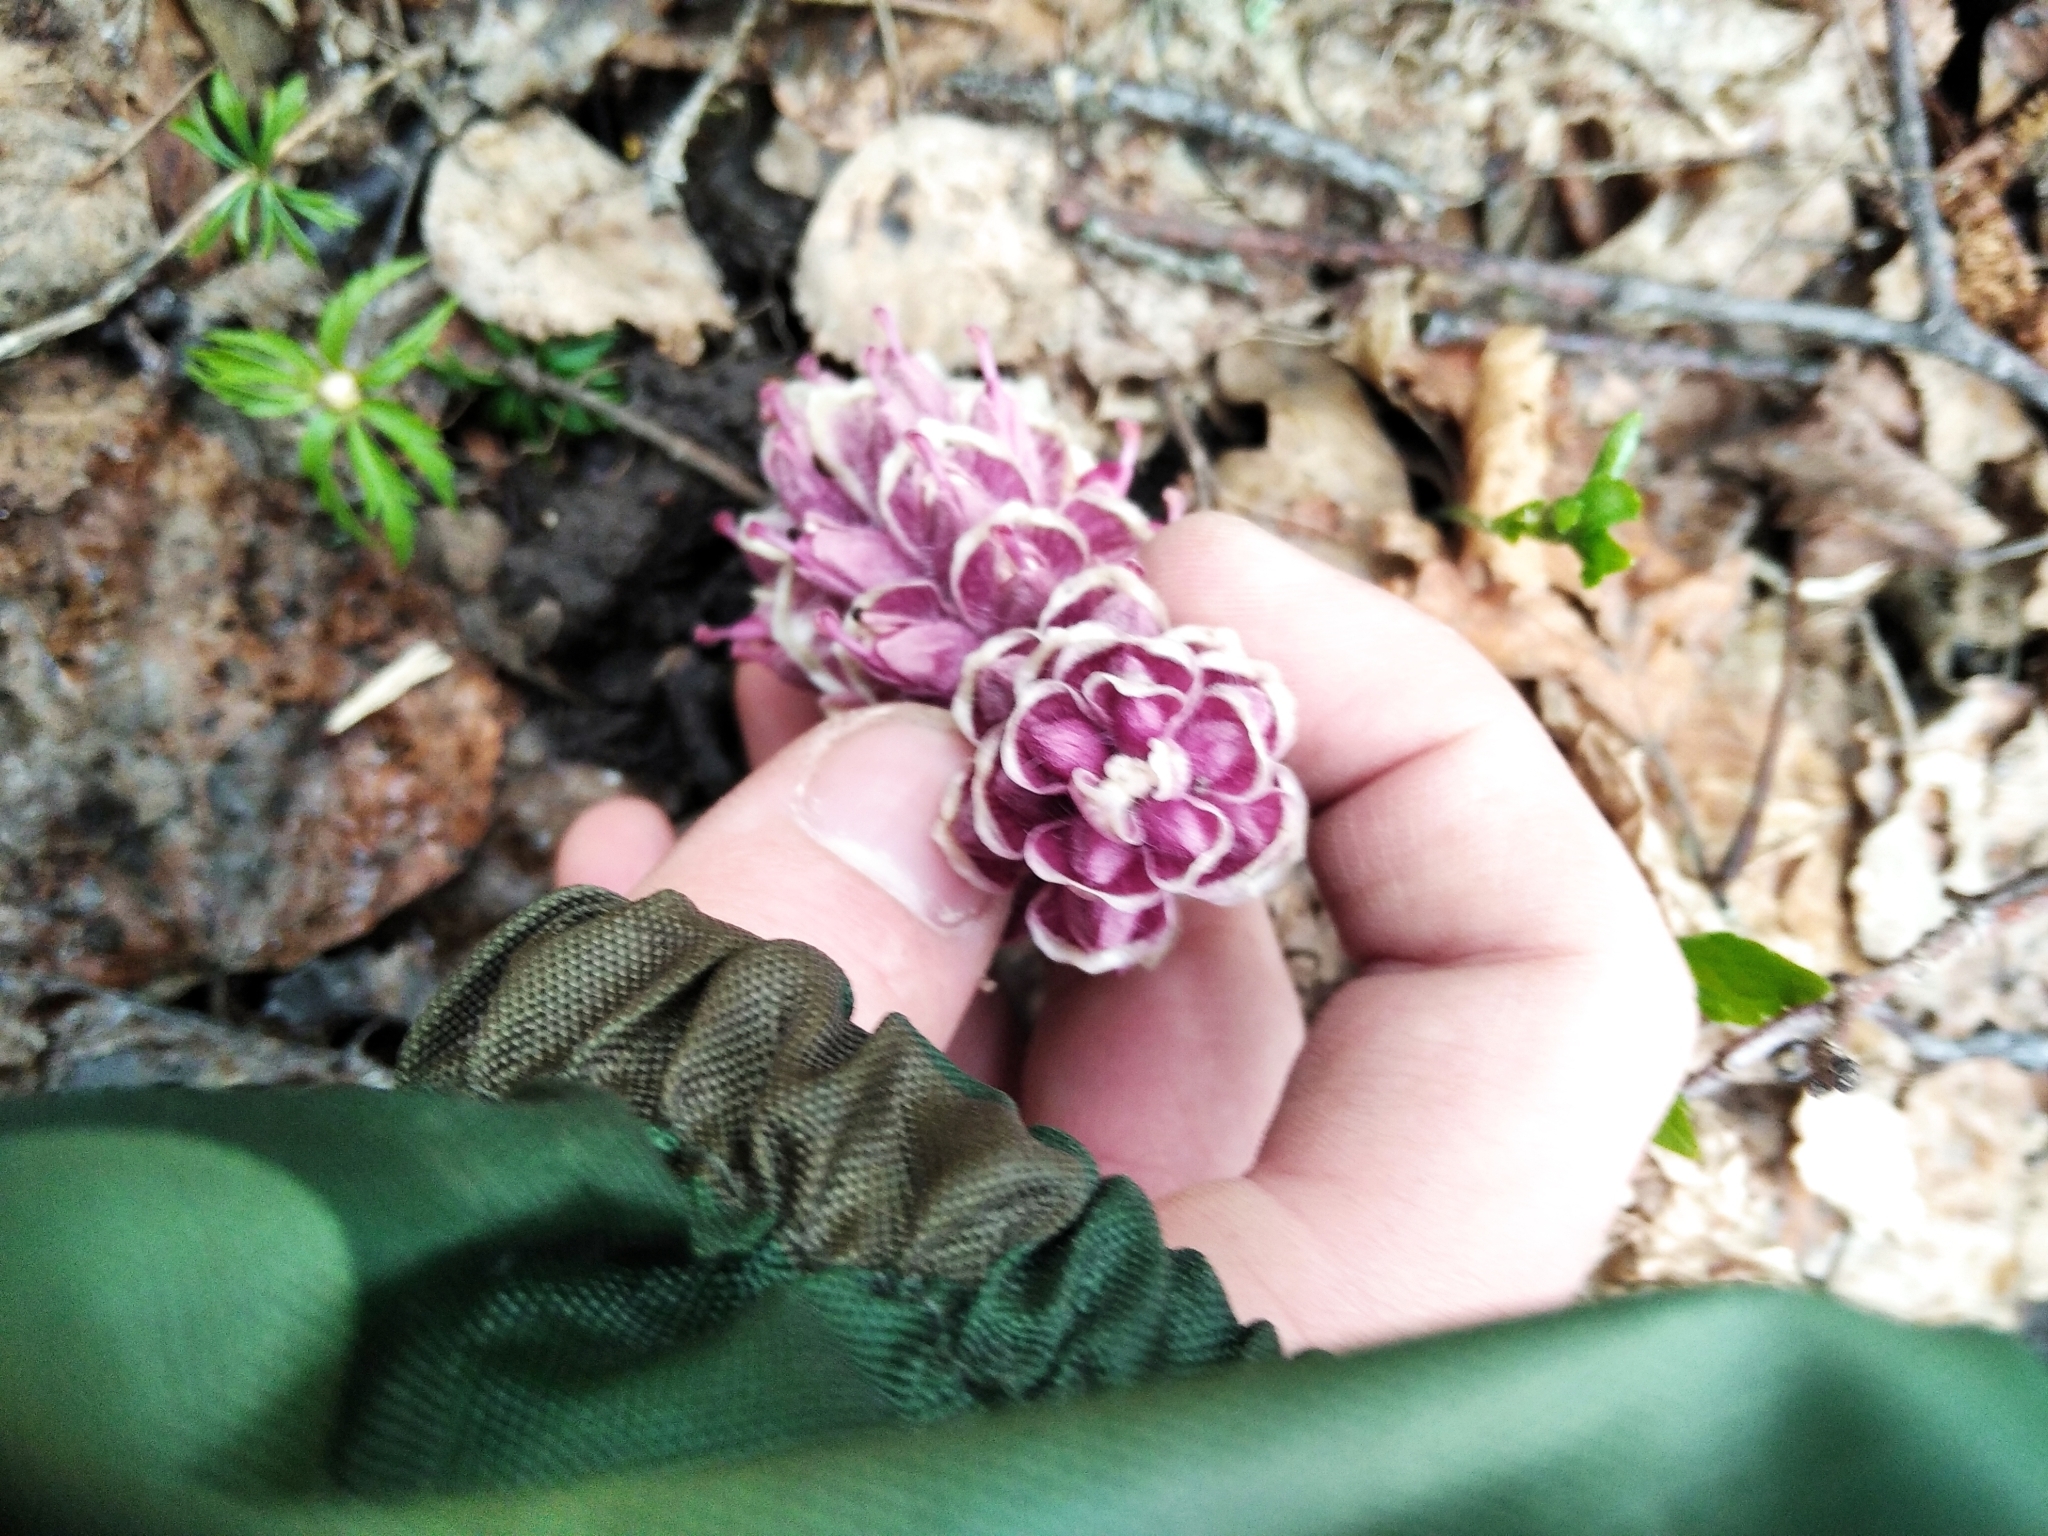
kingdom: Plantae
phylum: Tracheophyta
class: Magnoliopsida
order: Lamiales
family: Orobanchaceae
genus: Lathraea
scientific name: Lathraea squamaria
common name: Toothwort
